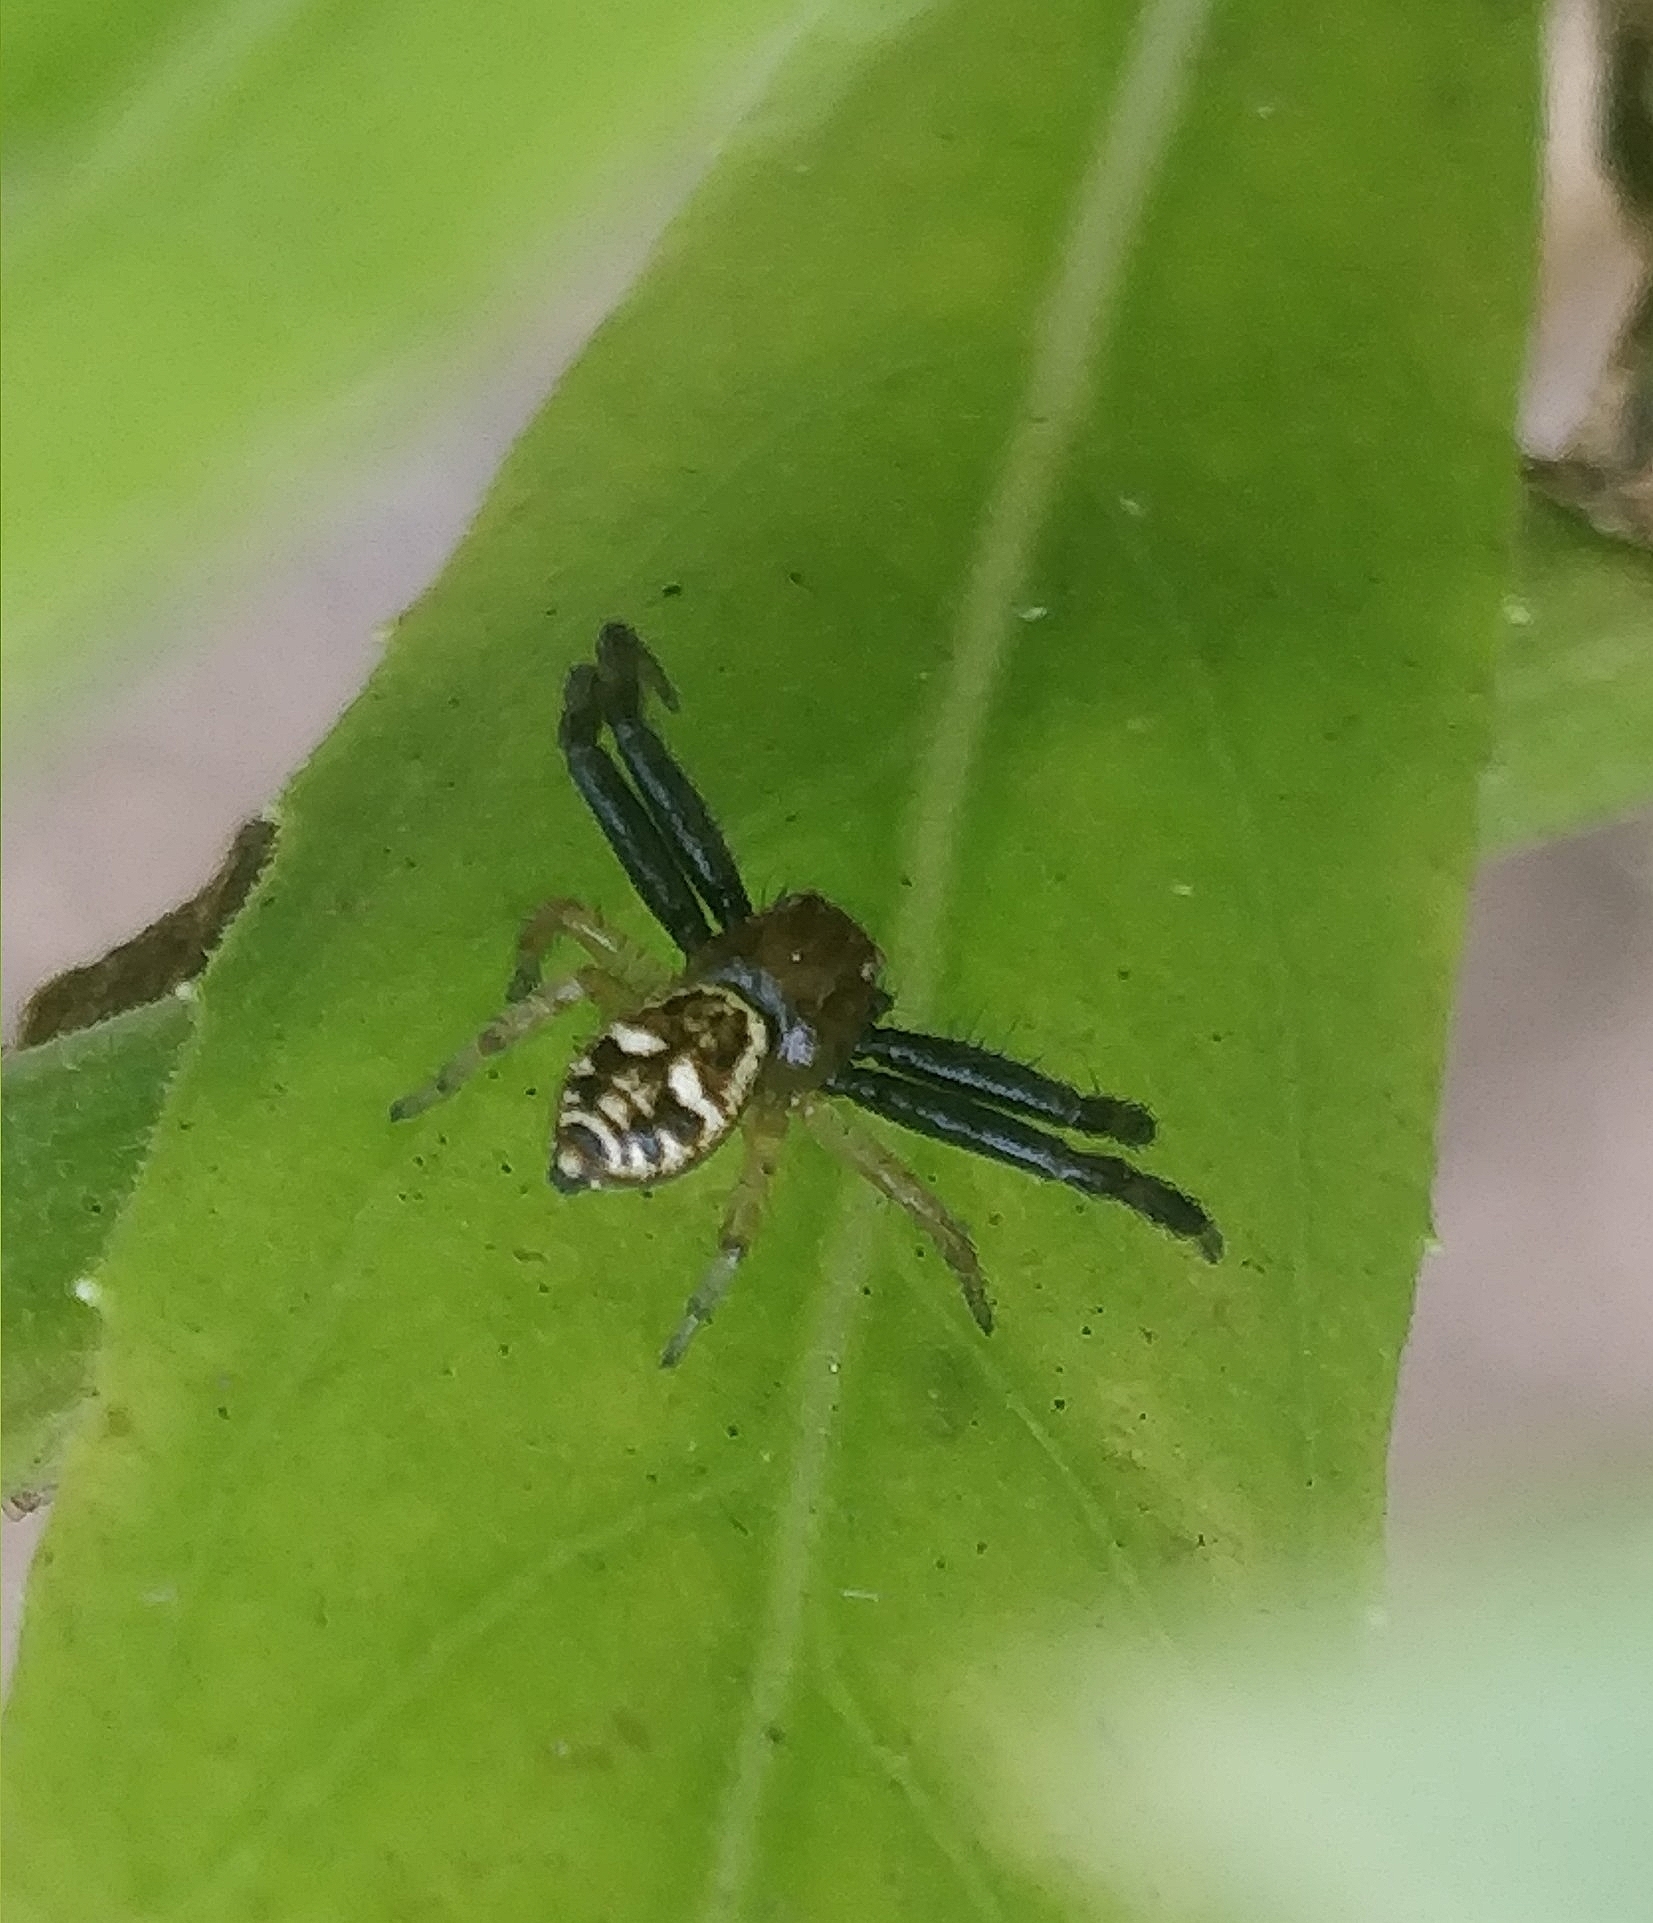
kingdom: Animalia
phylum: Arthropoda
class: Arachnida
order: Araneae
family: Thomisidae
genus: Synema
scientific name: Synema globosum
